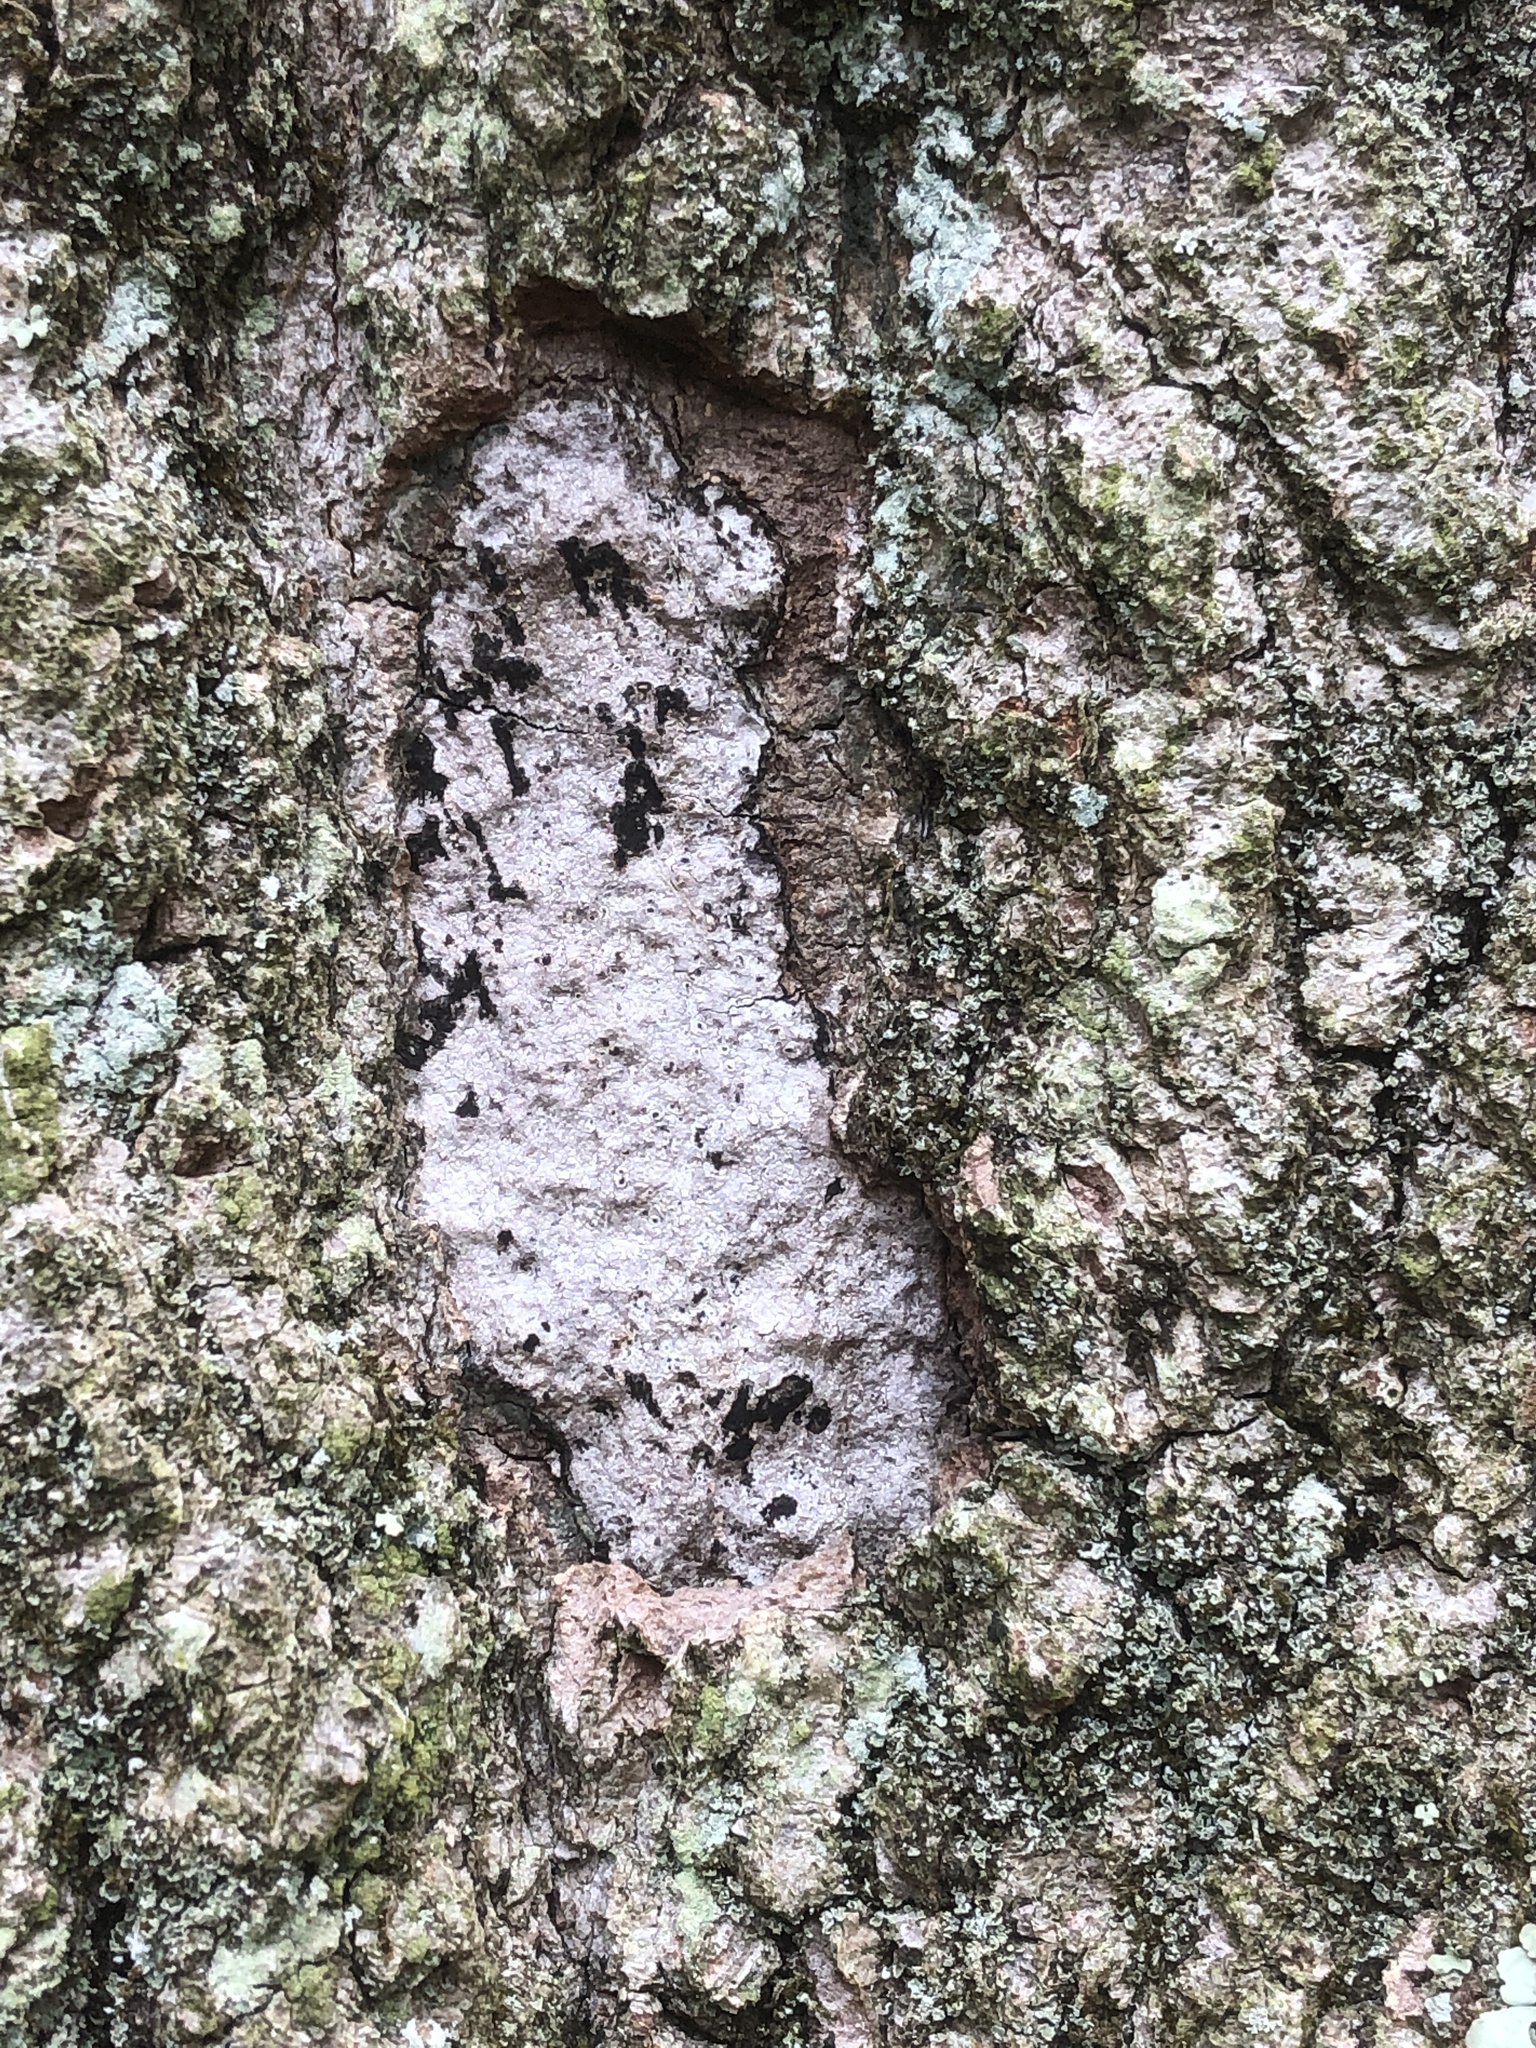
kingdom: Fungi
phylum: Ascomycota
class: Sordariomycetes
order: Xylariales
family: Graphostromataceae
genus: Biscogniauxia
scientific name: Biscogniauxia atropunctata
